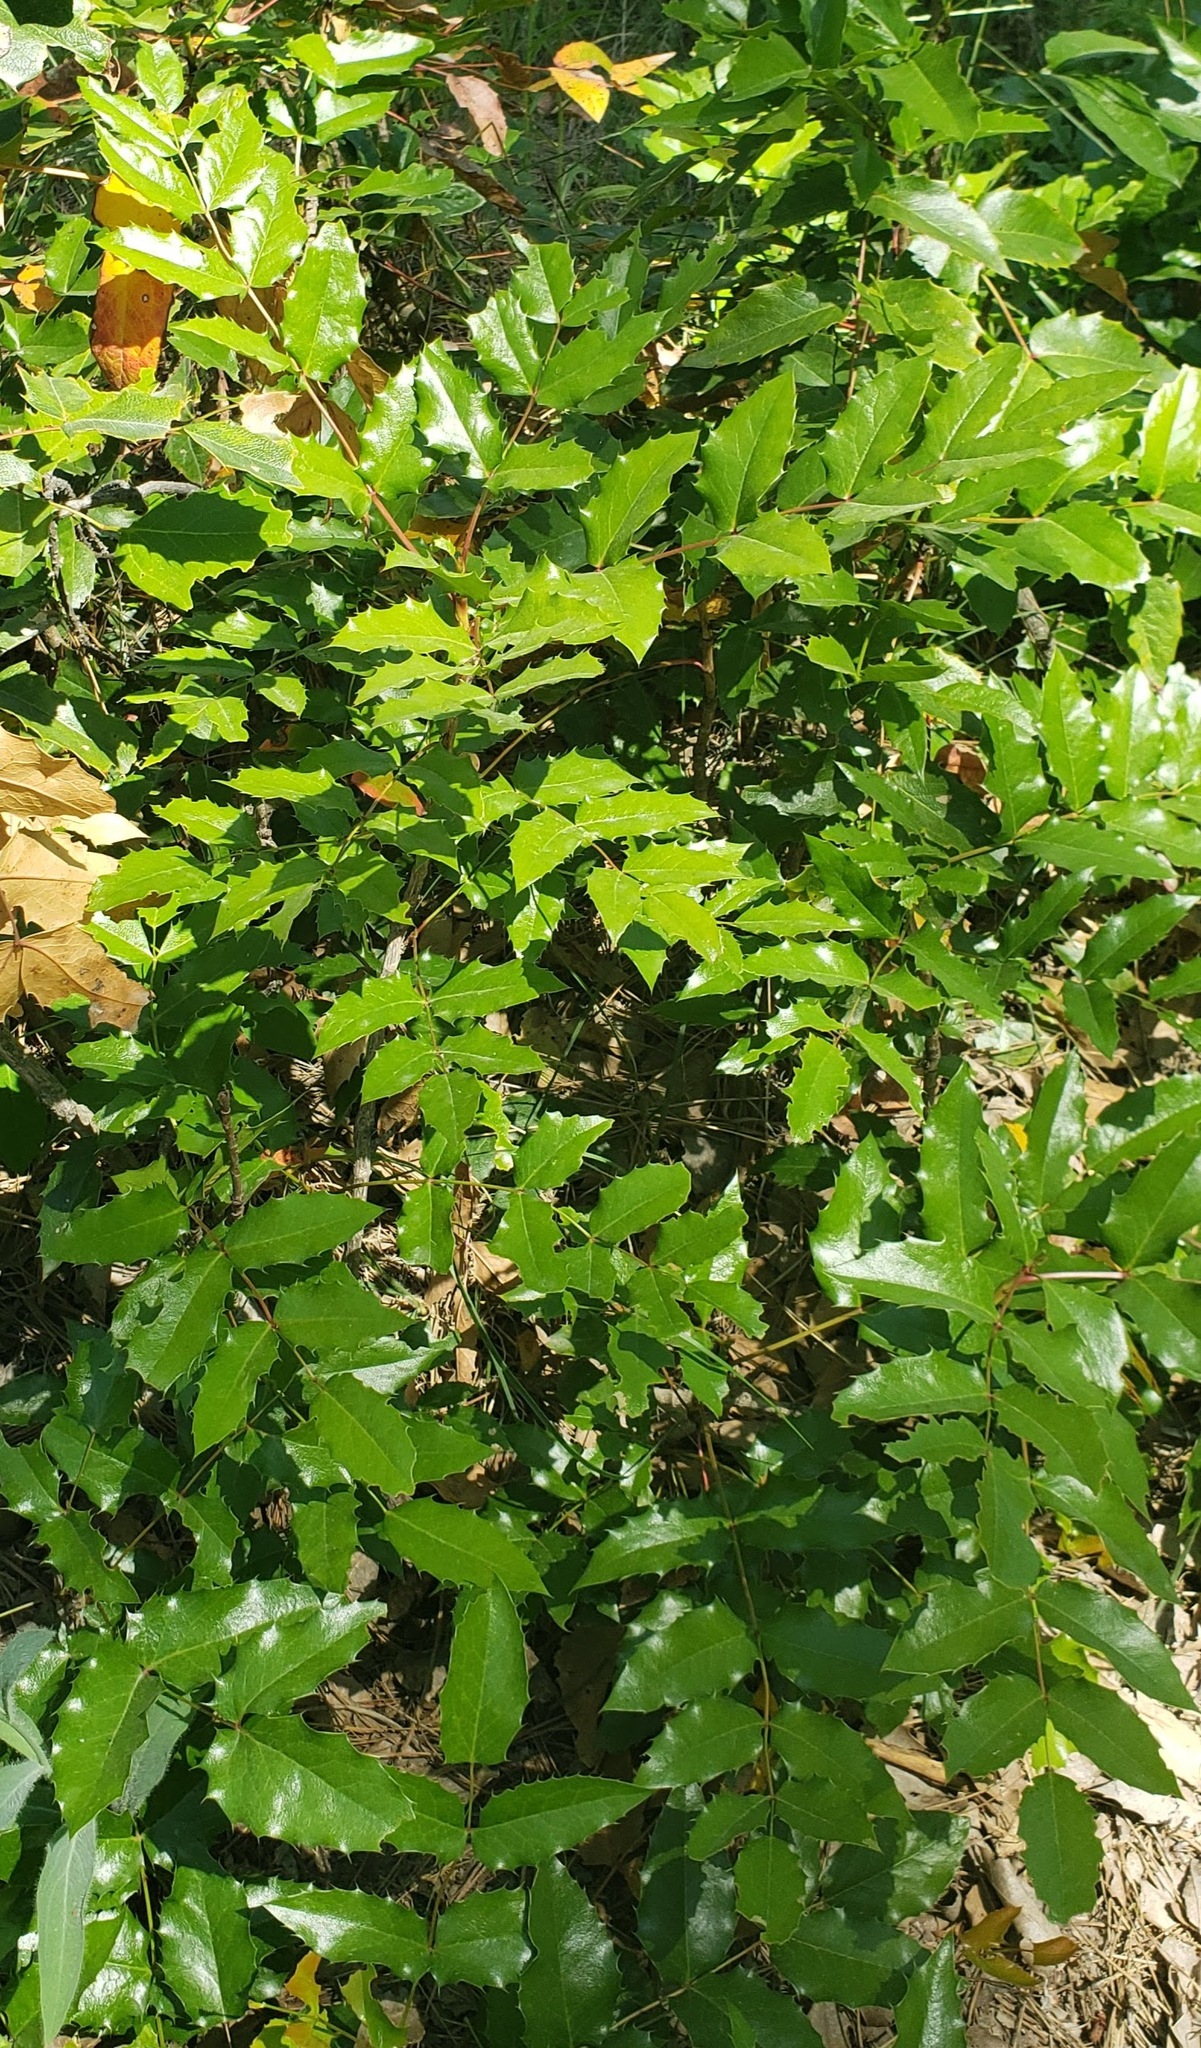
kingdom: Plantae
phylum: Tracheophyta
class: Magnoliopsida
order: Ranunculales
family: Berberidaceae
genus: Mahonia
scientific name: Mahonia aquifolium
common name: Oregon-grape
